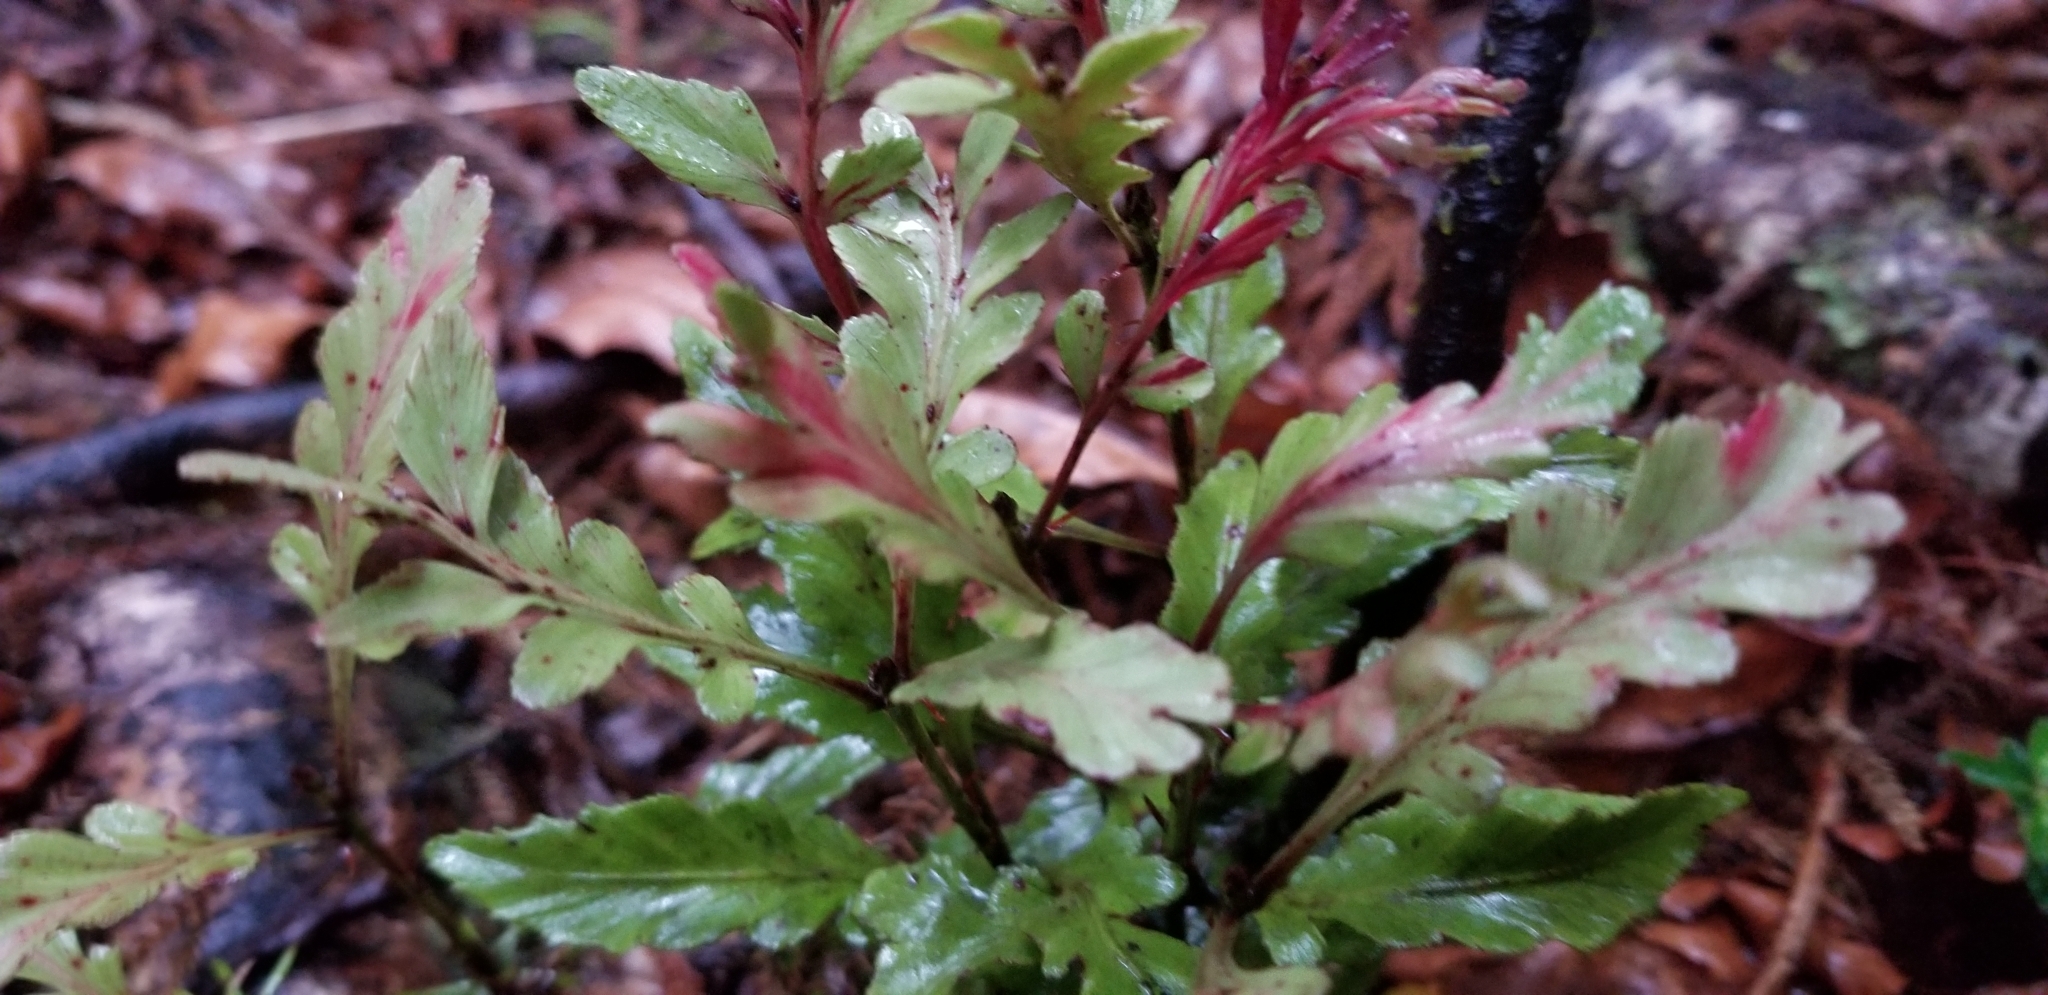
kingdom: Plantae
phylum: Tracheophyta
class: Pinopsida
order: Pinales
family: Phyllocladaceae
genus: Phyllocladus
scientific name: Phyllocladus trichomanoides
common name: Celery pine
